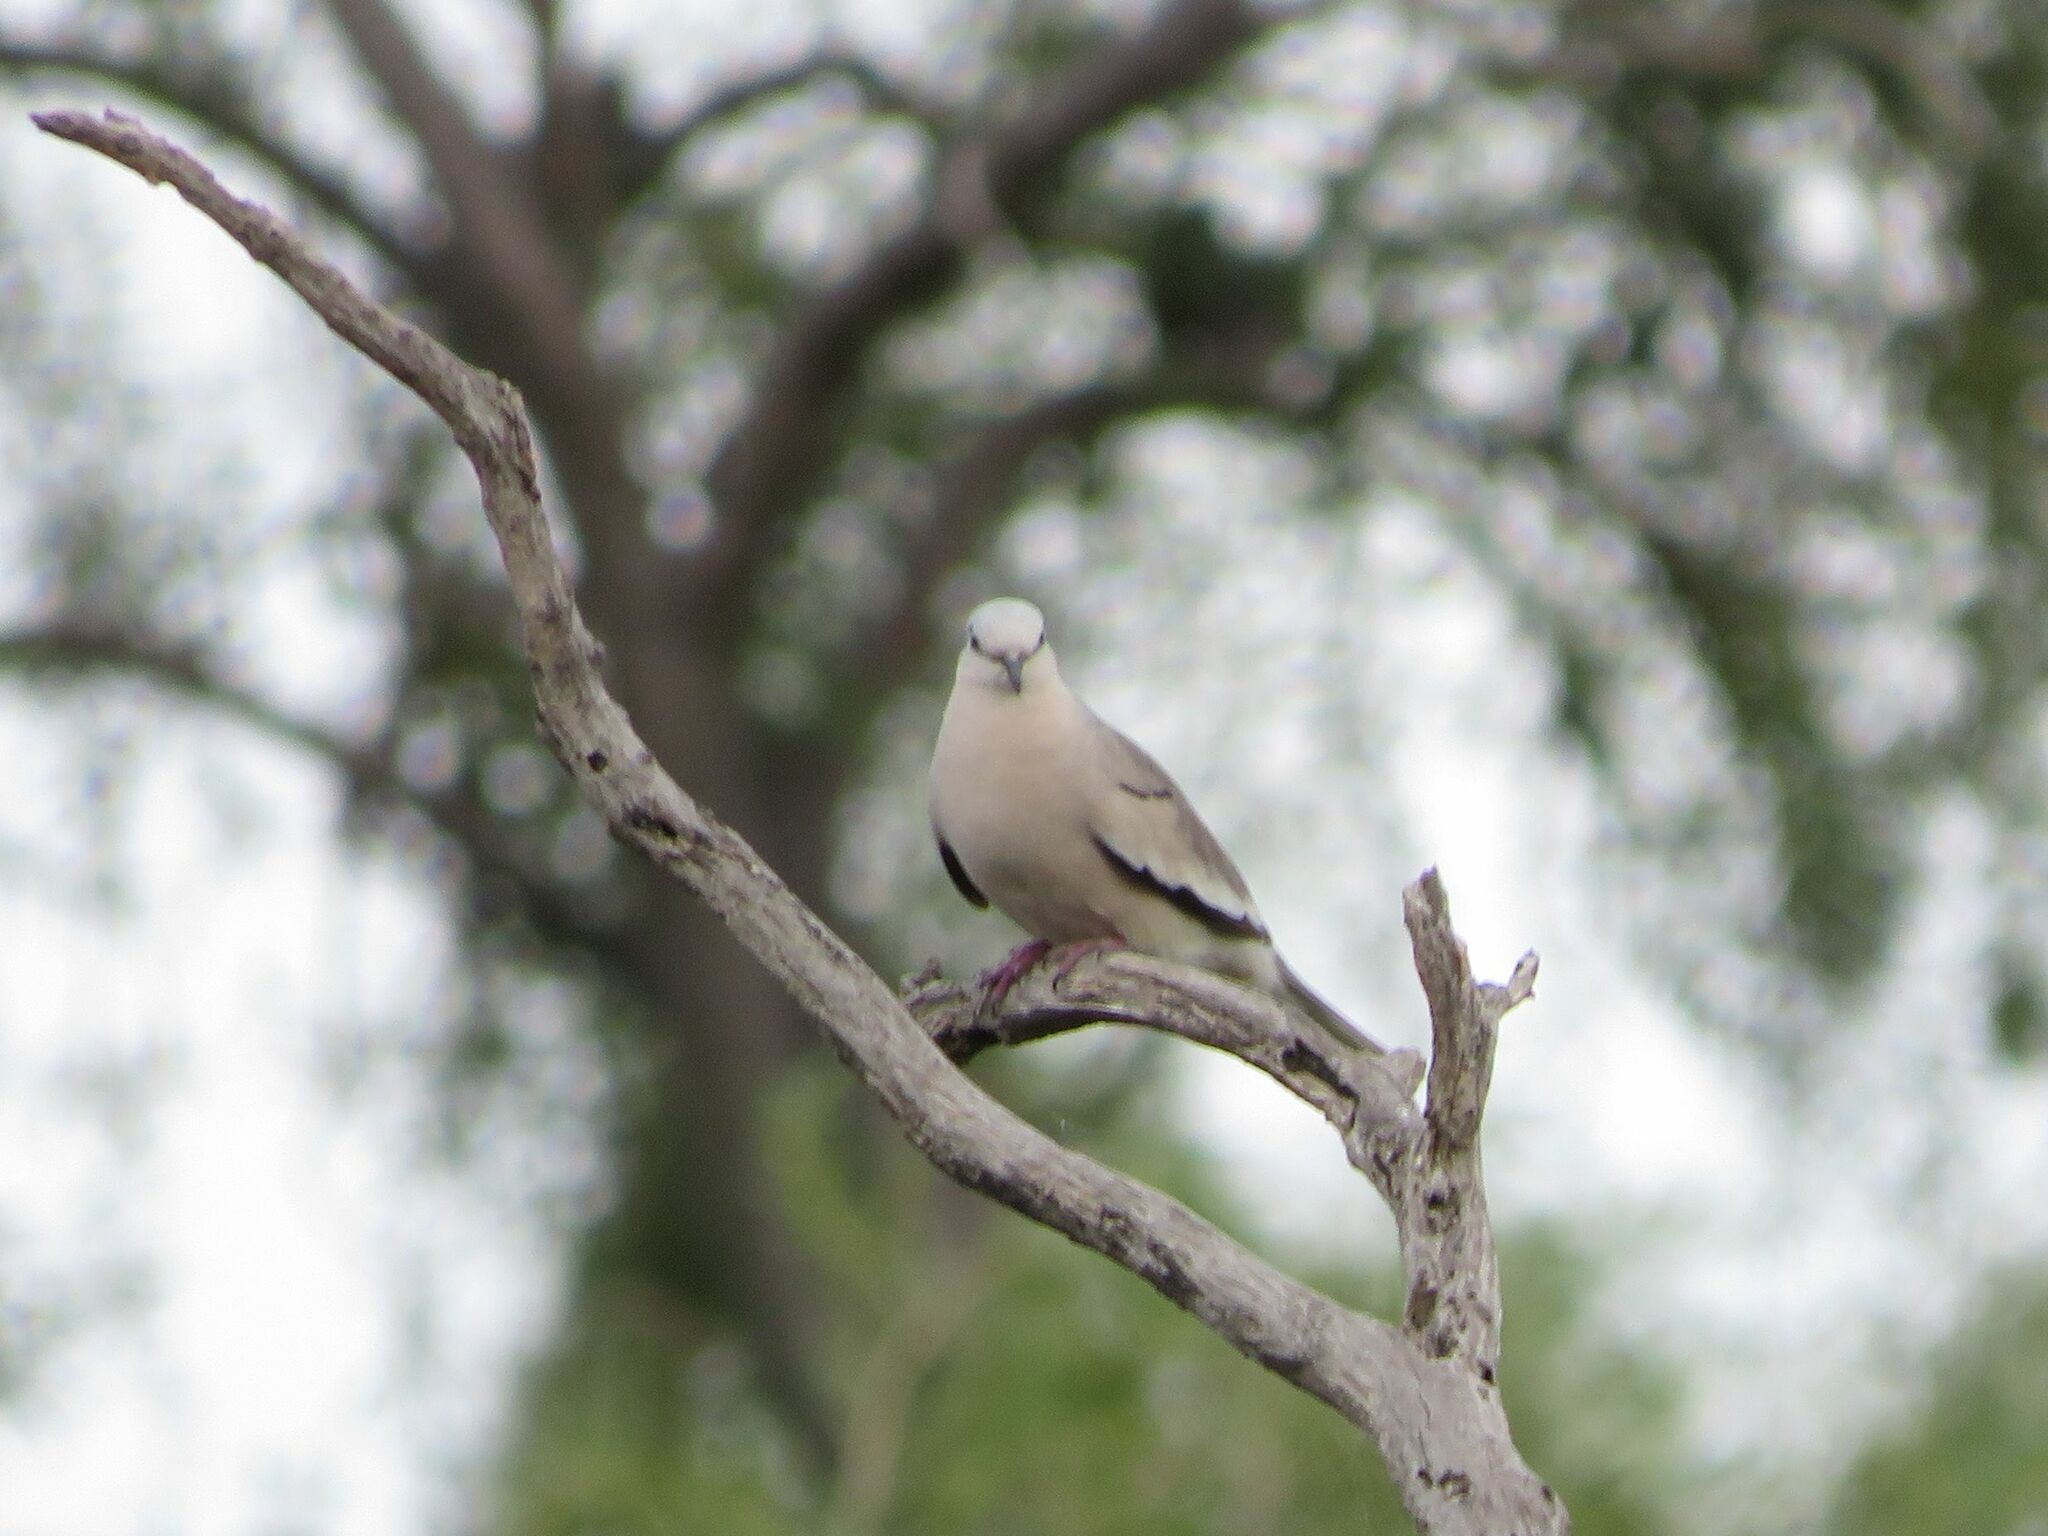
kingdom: Animalia
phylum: Chordata
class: Aves
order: Columbiformes
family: Columbidae
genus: Columbina
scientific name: Columbina picui
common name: Picui ground dove
